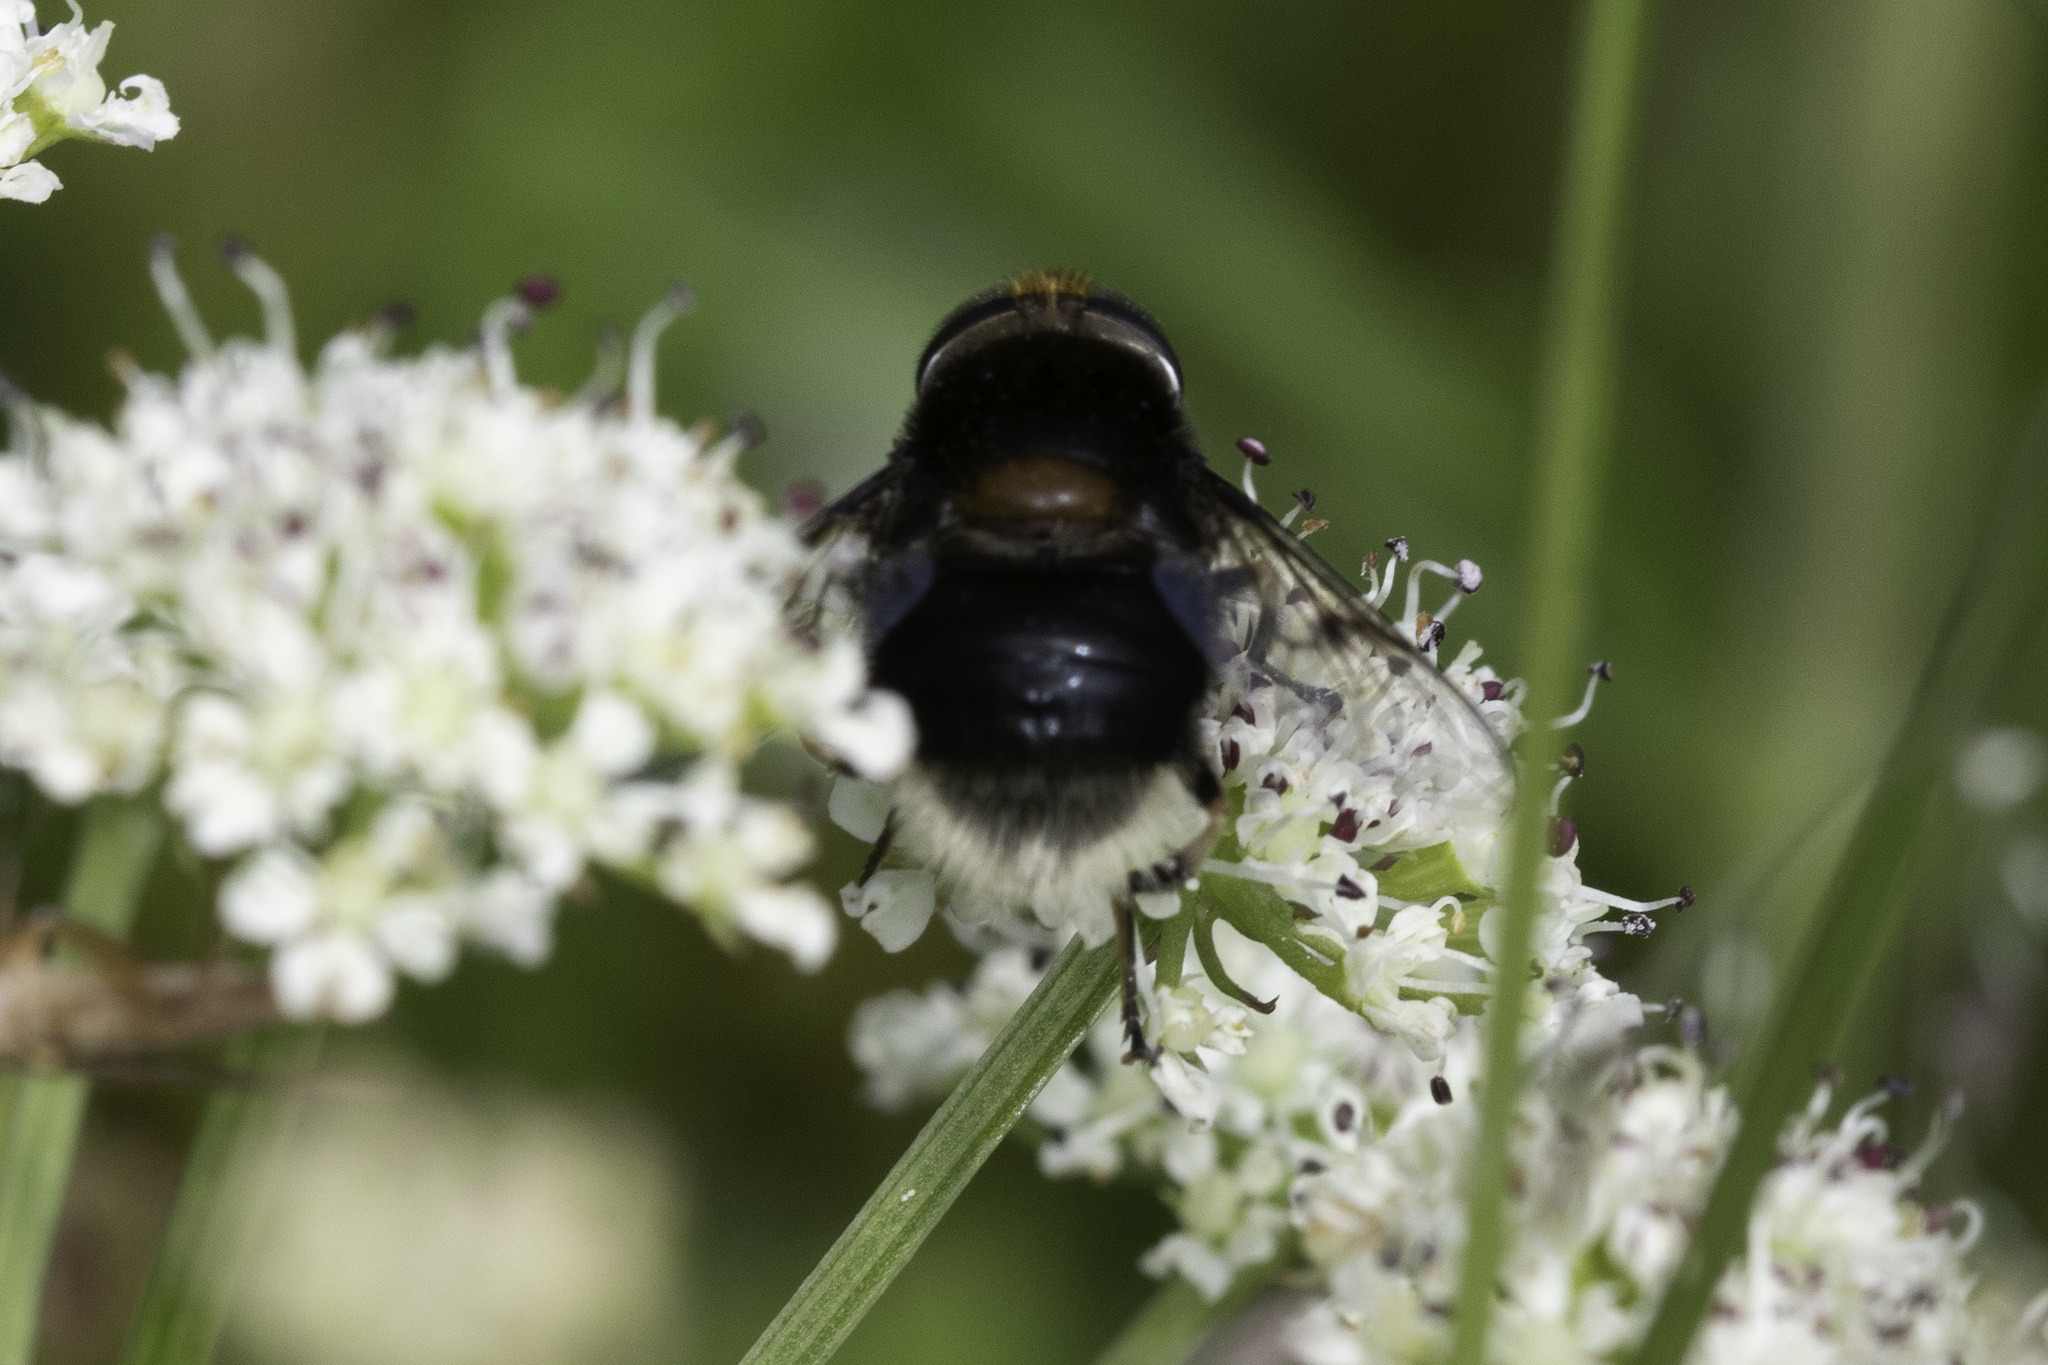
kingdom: Animalia
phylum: Arthropoda
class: Insecta
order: Diptera
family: Syrphidae
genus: Eristalis
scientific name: Eristalis intricaria
